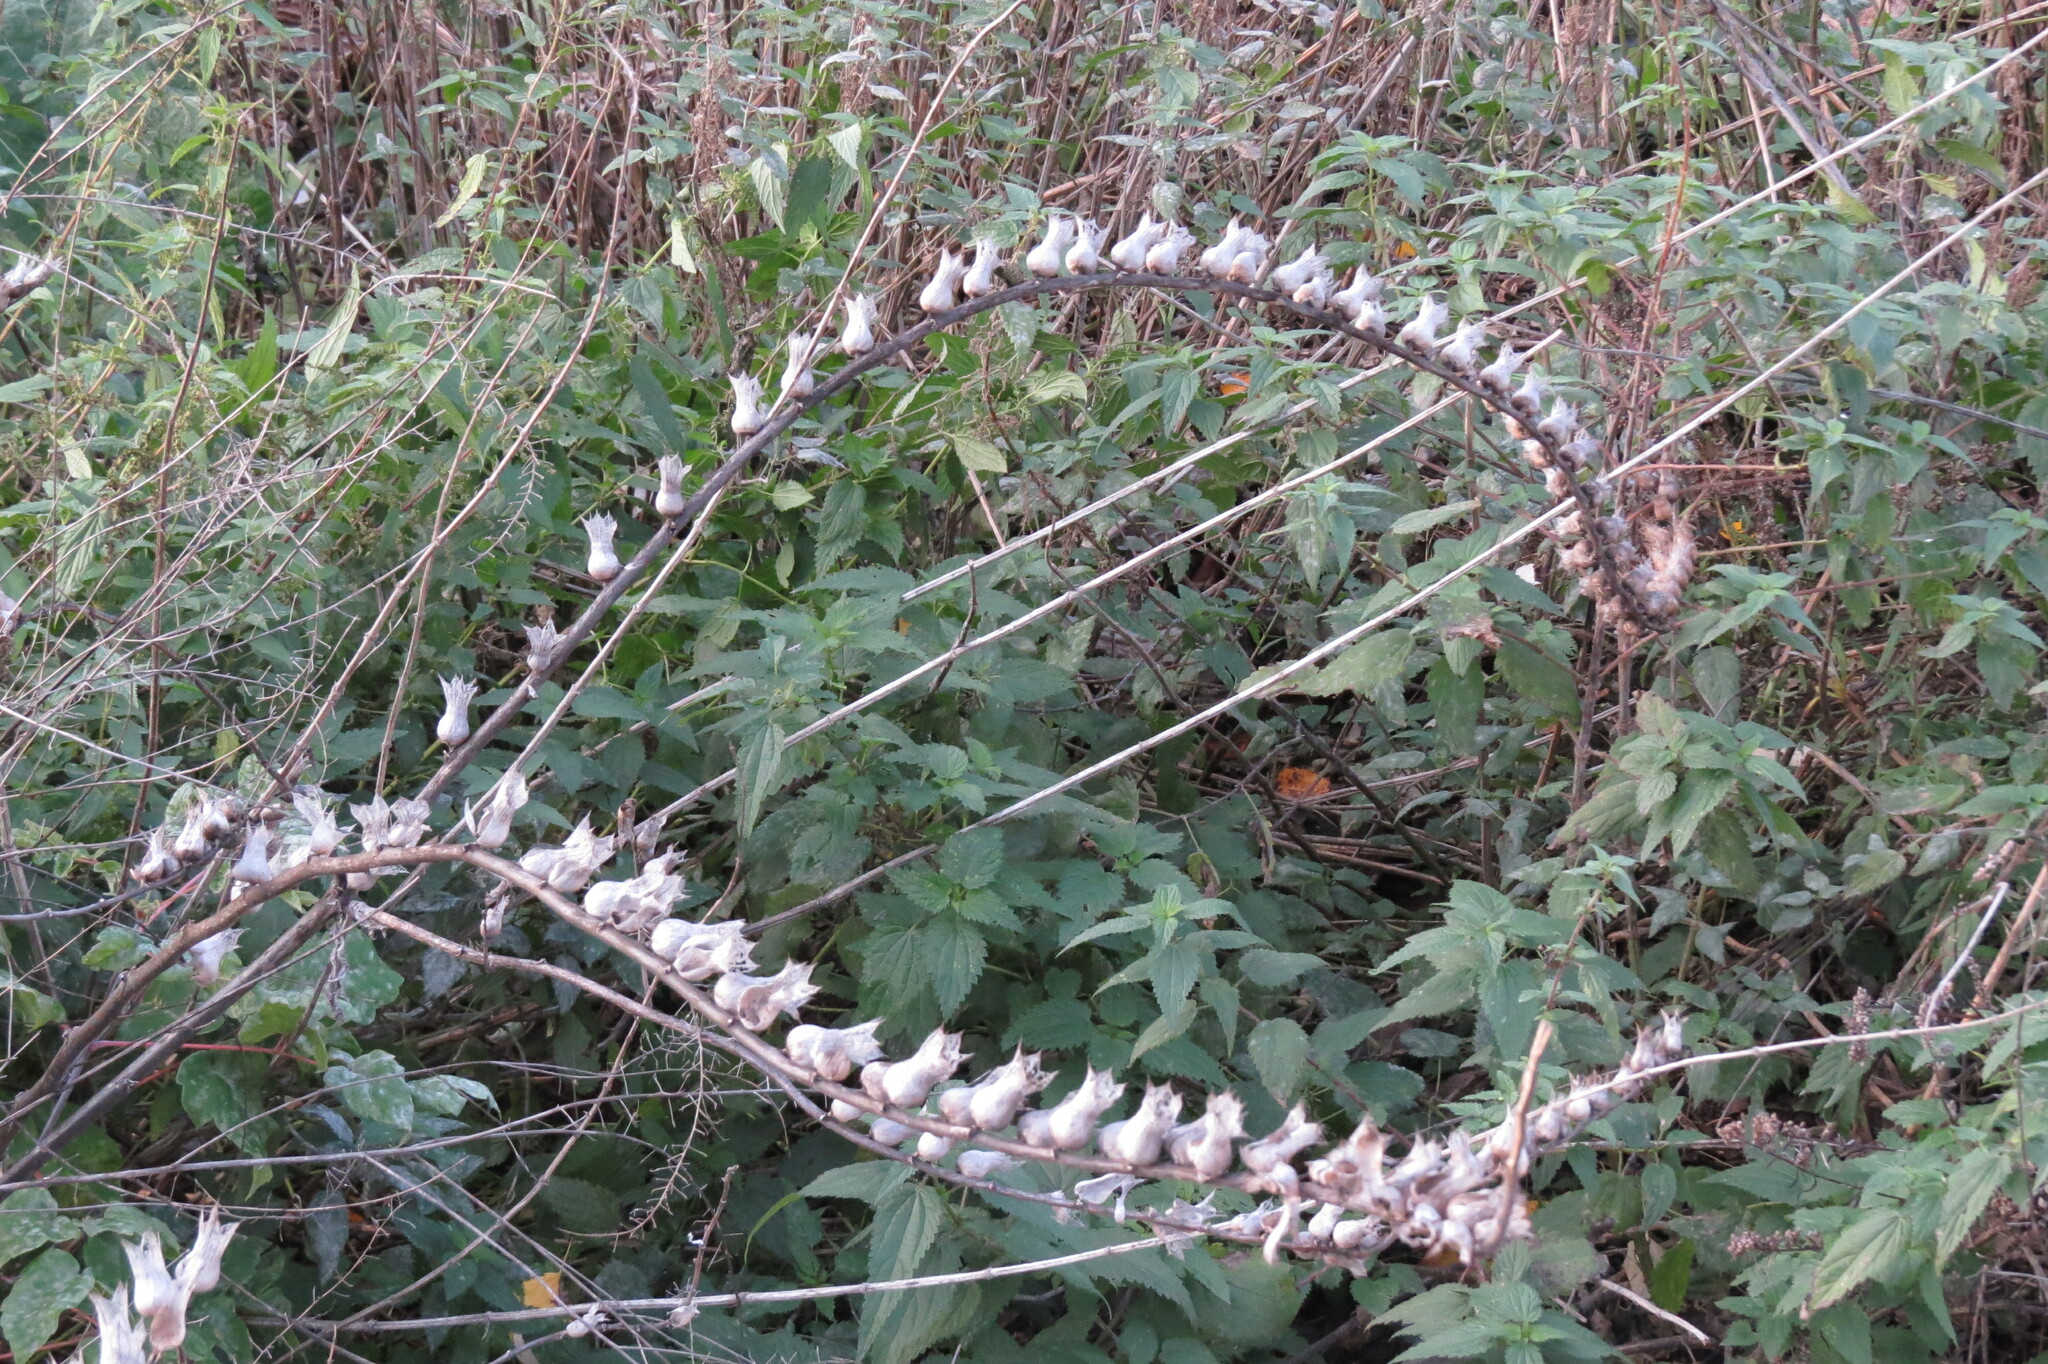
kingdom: Plantae
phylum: Tracheophyta
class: Magnoliopsida
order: Solanales
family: Solanaceae
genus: Hyoscyamus
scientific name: Hyoscyamus niger
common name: Henbane
